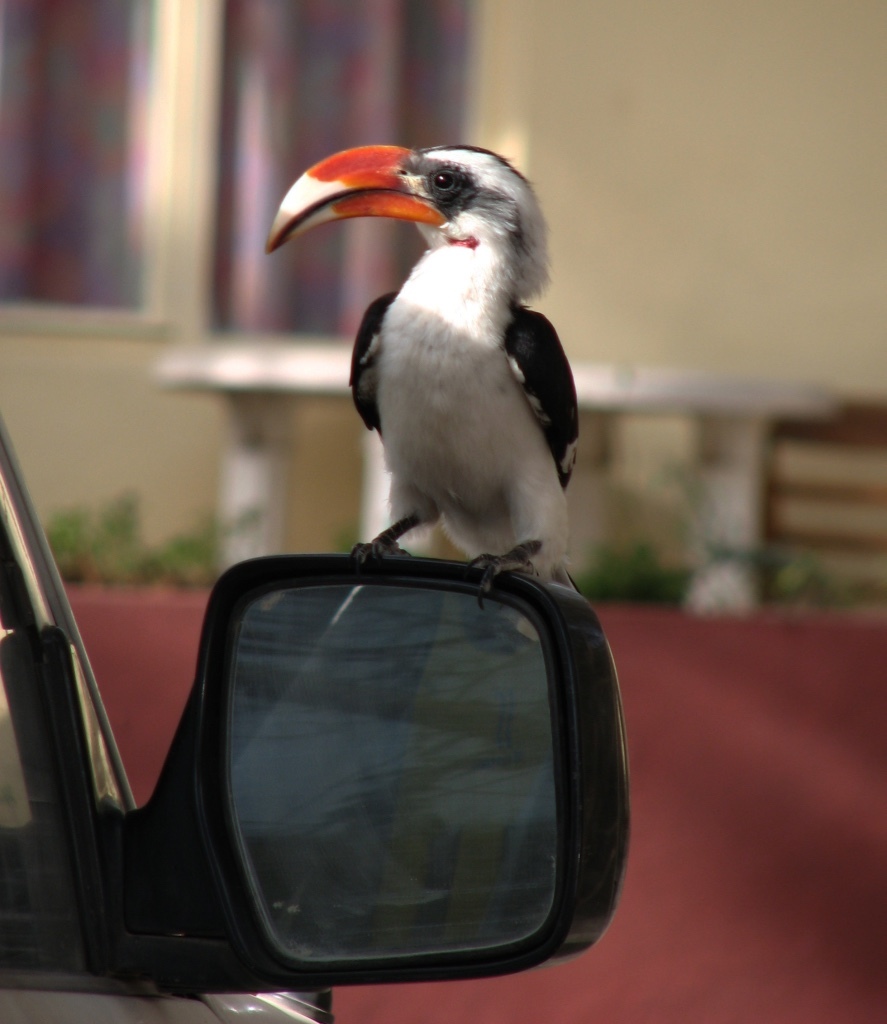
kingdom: Animalia
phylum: Chordata
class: Aves
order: Bucerotiformes
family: Bucerotidae
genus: Tockus
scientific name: Tockus deckeni
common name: Von der decken's hornbill
